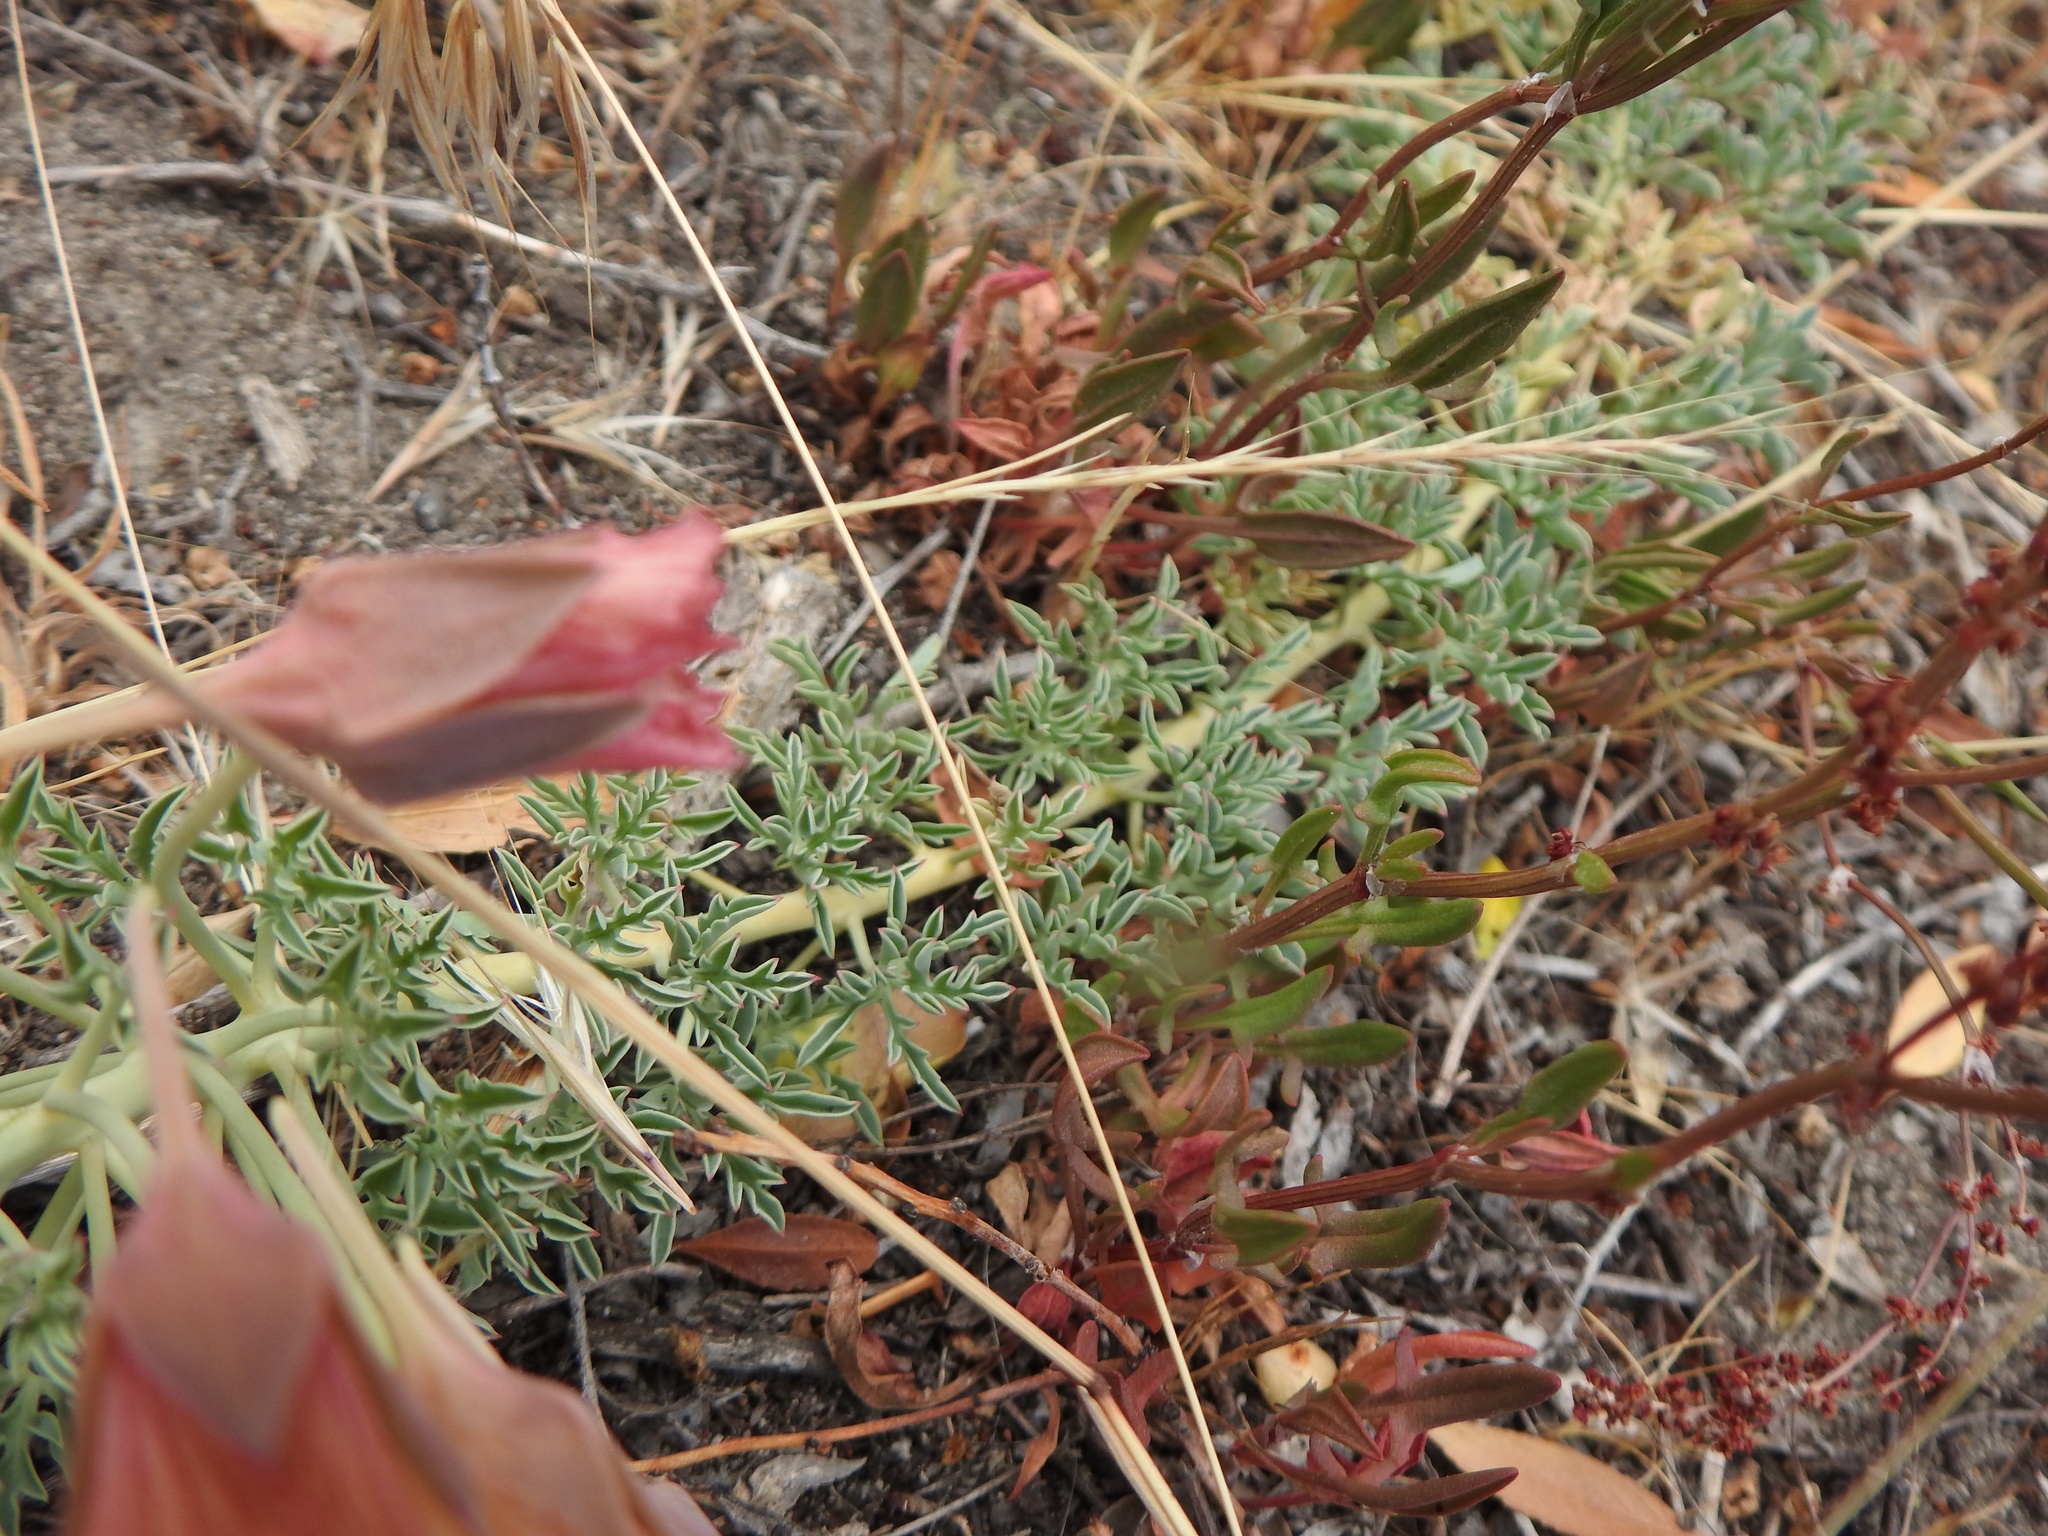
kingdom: Plantae
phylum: Tracheophyta
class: Magnoliopsida
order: Brassicales
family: Tropaeolaceae
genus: Tropaeolum
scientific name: Tropaeolum incisum
